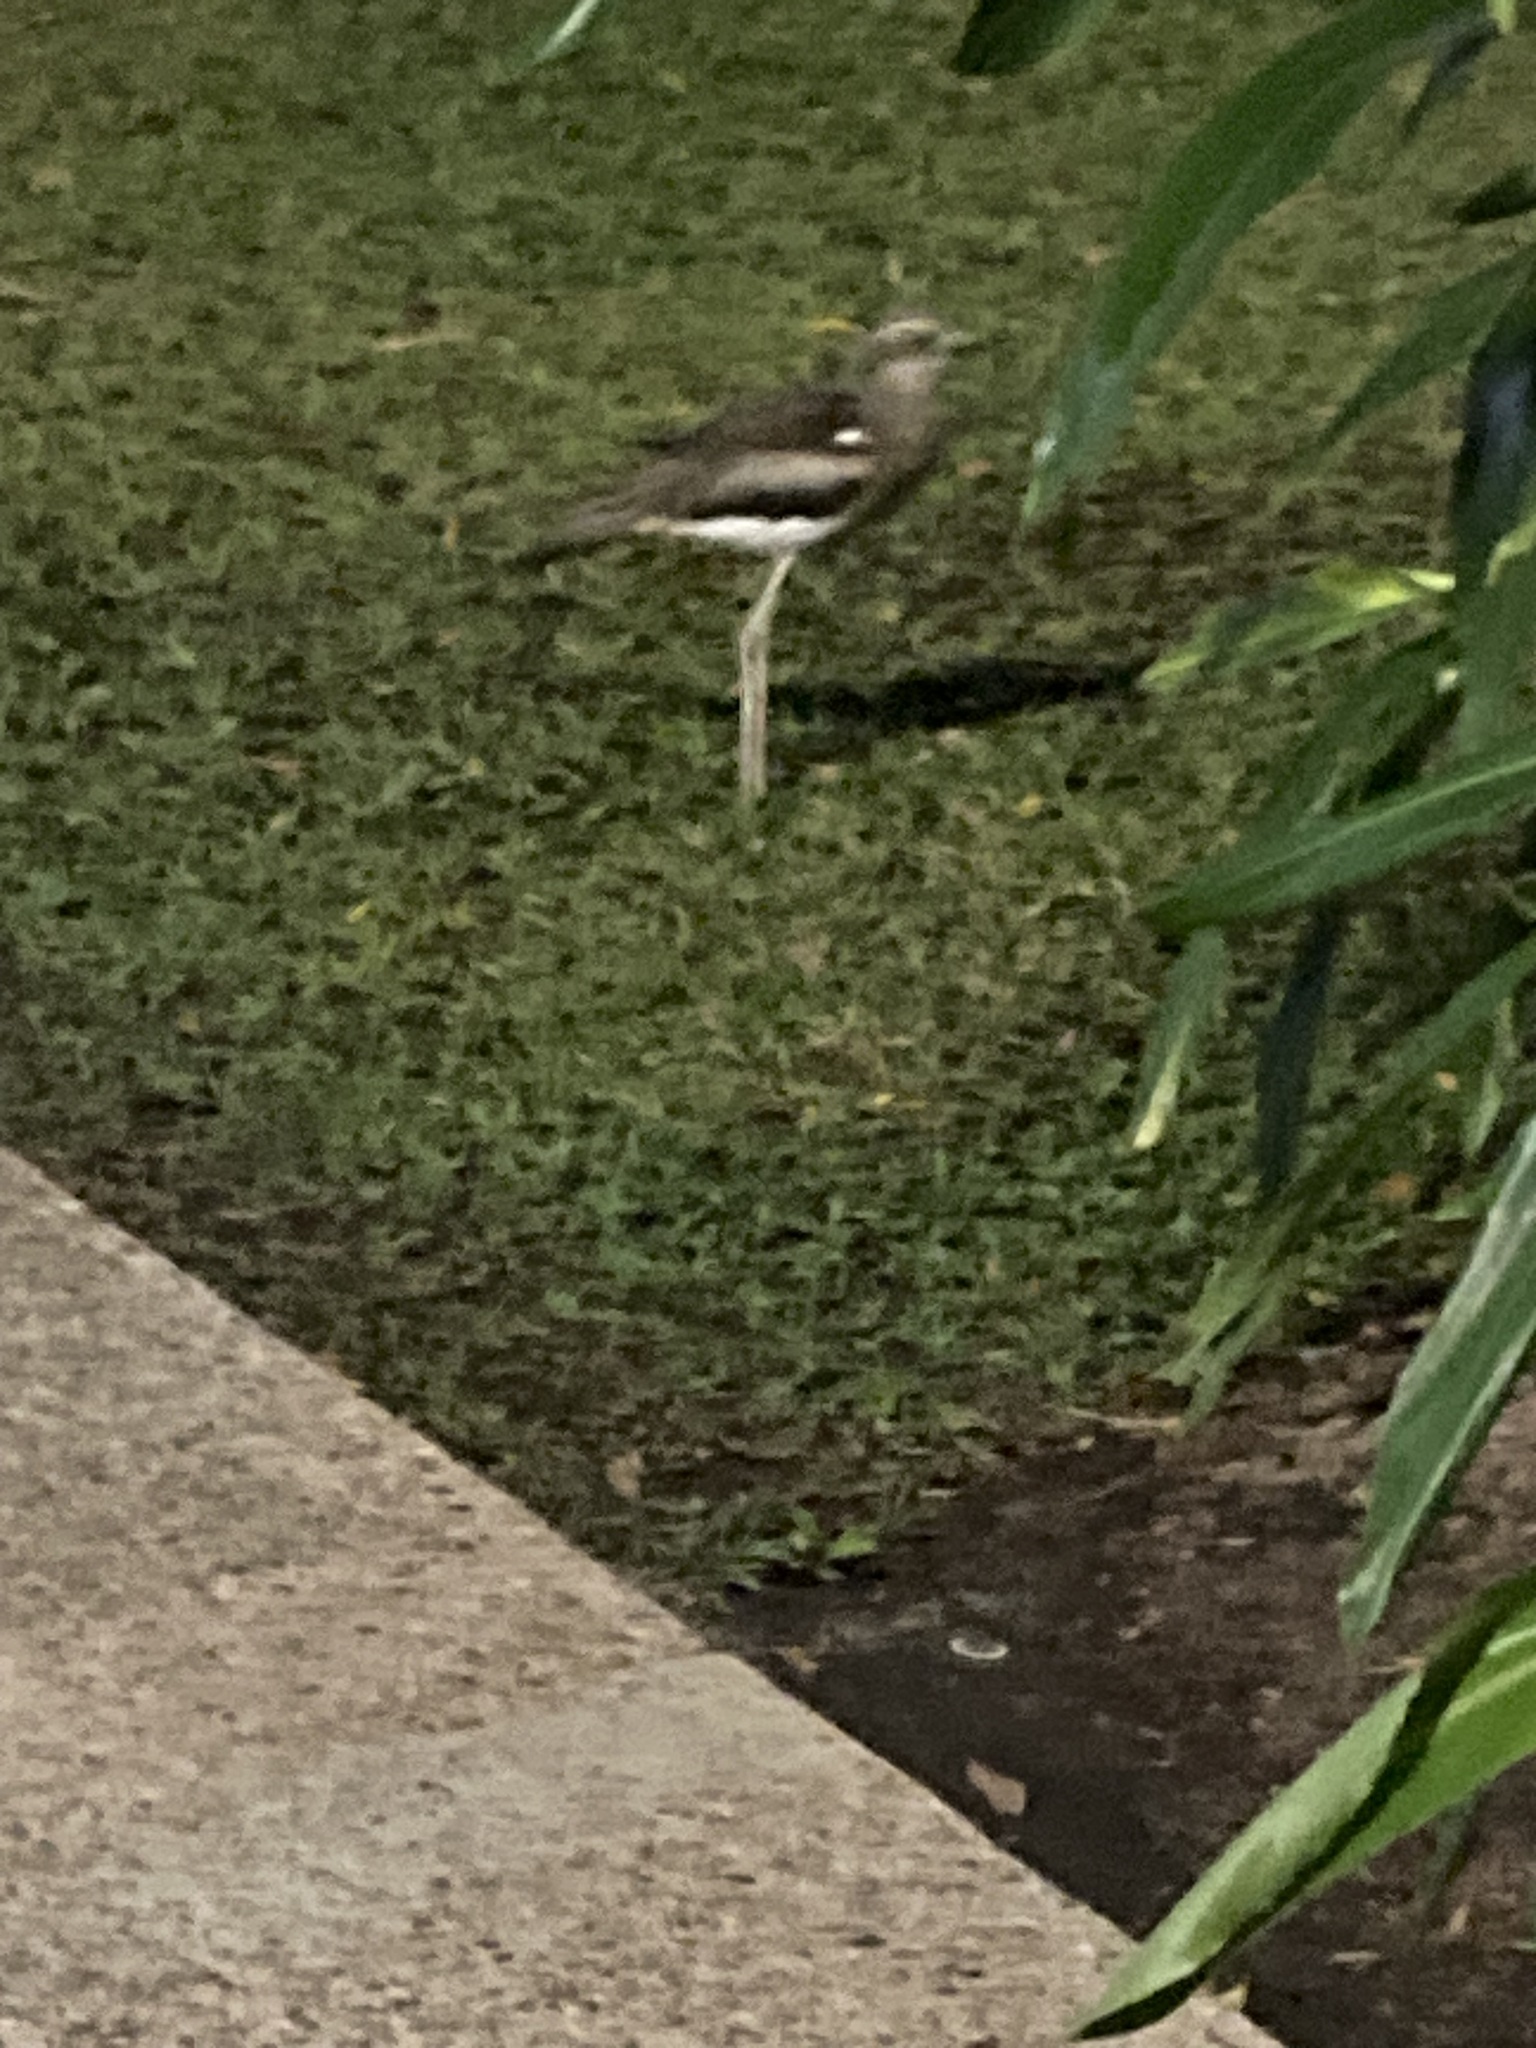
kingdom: Animalia
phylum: Chordata
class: Aves
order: Charadriiformes
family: Burhinidae
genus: Burhinus
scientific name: Burhinus grallarius
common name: Bush stone-curlew
